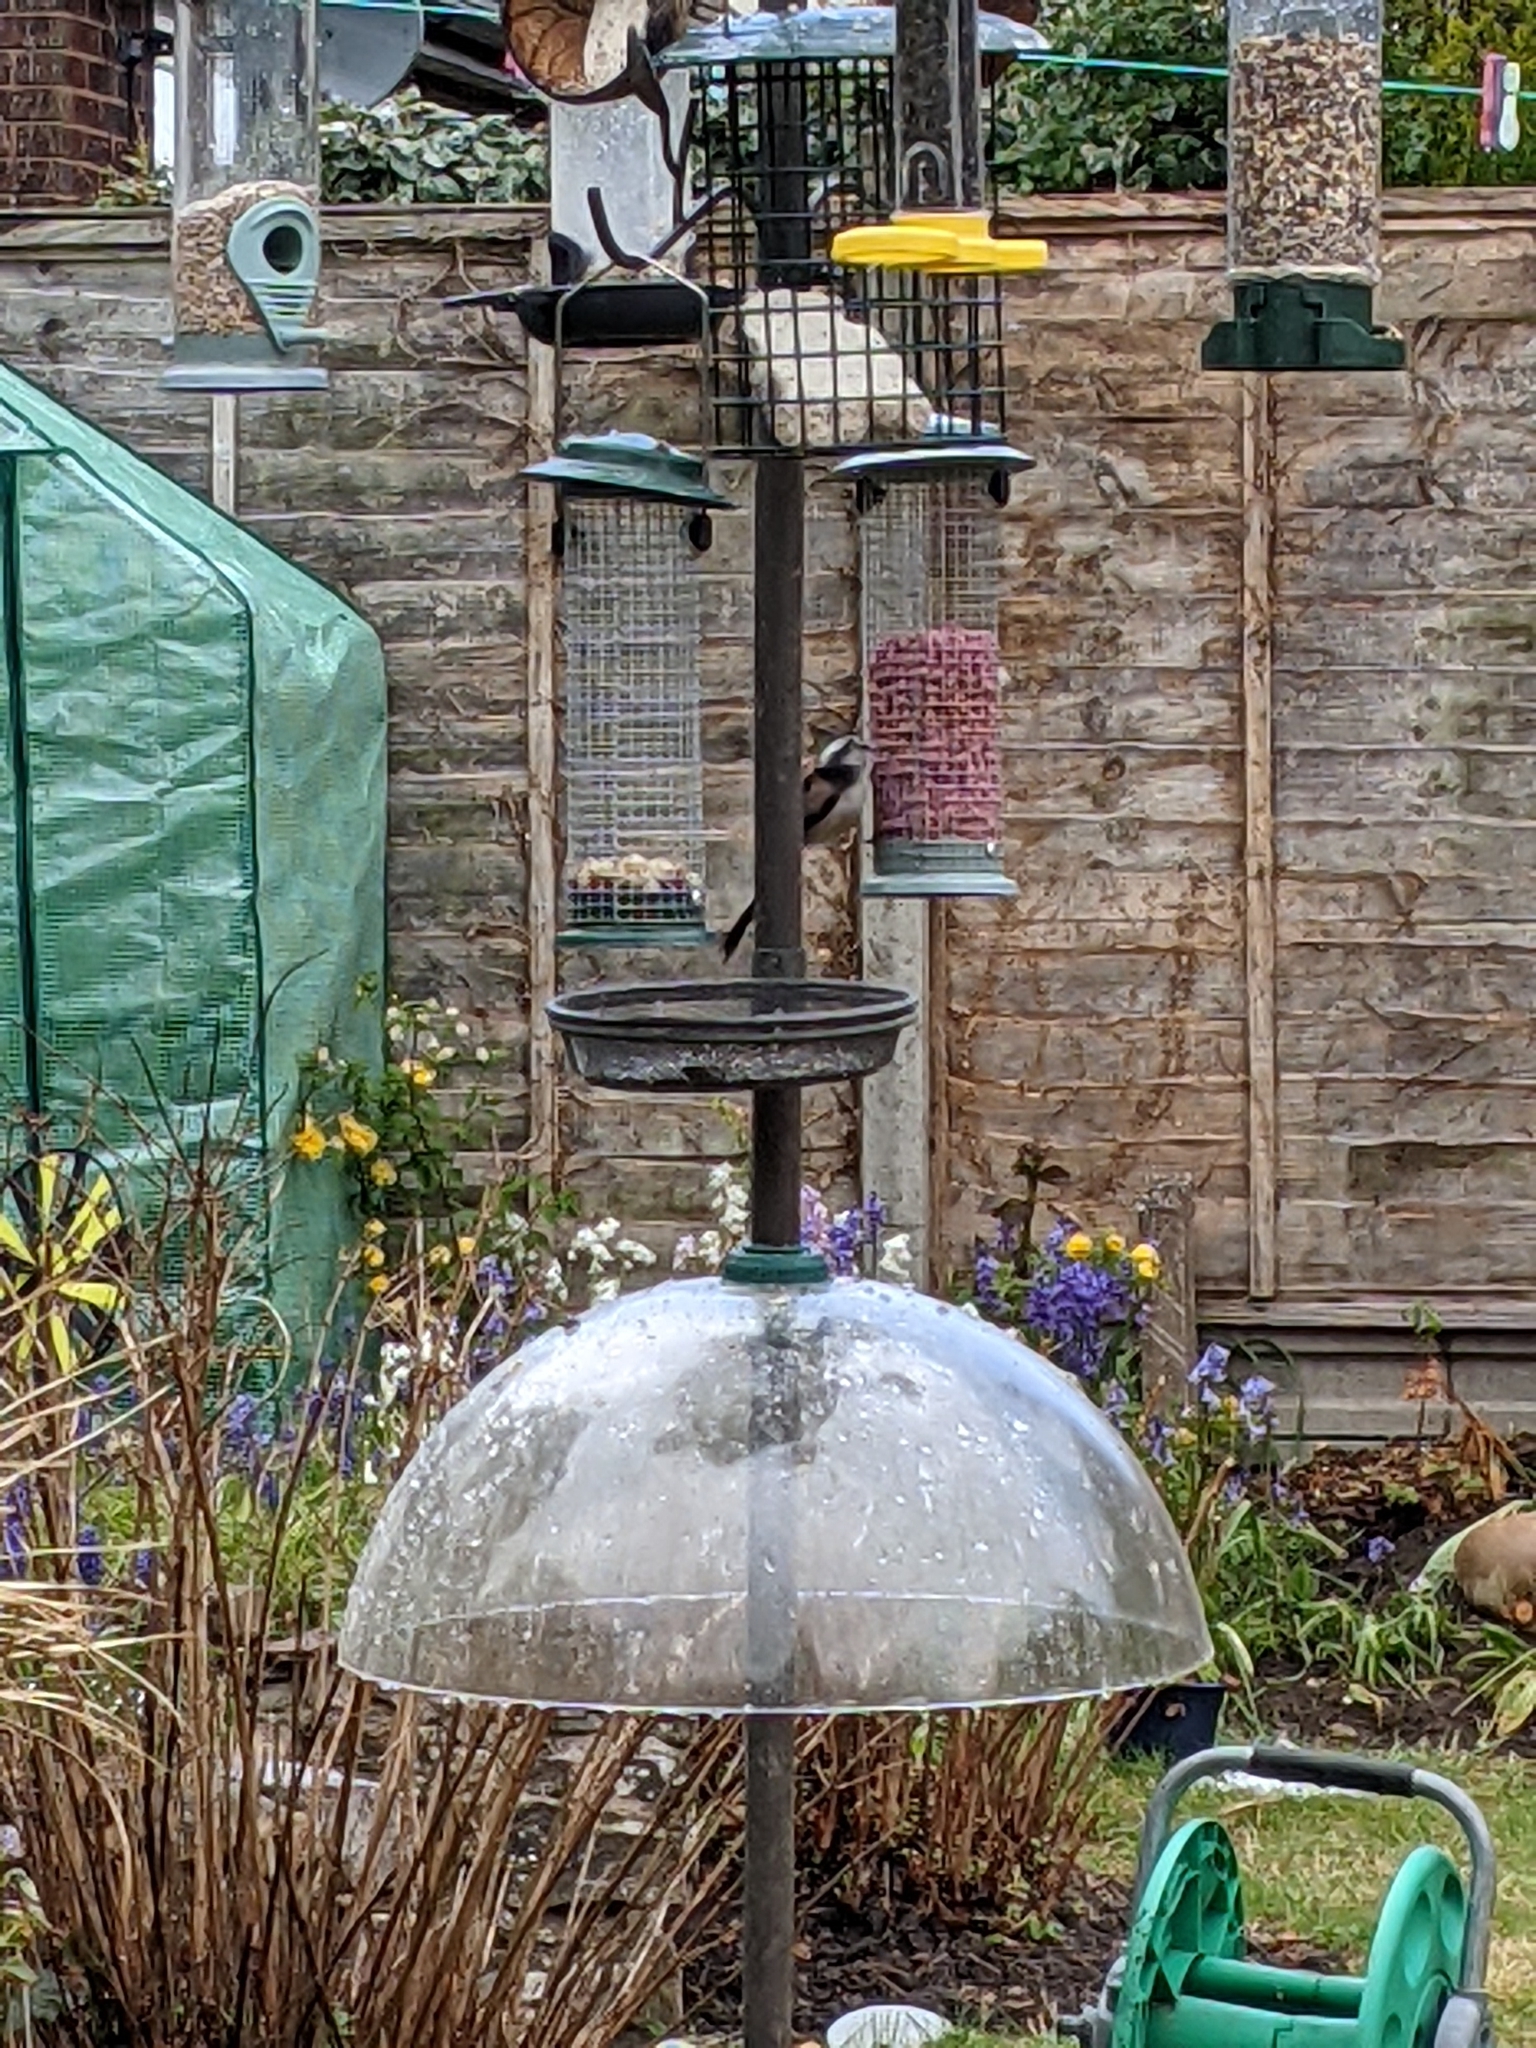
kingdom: Animalia
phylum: Chordata
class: Aves
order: Passeriformes
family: Aegithalidae
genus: Aegithalos
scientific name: Aegithalos caudatus
